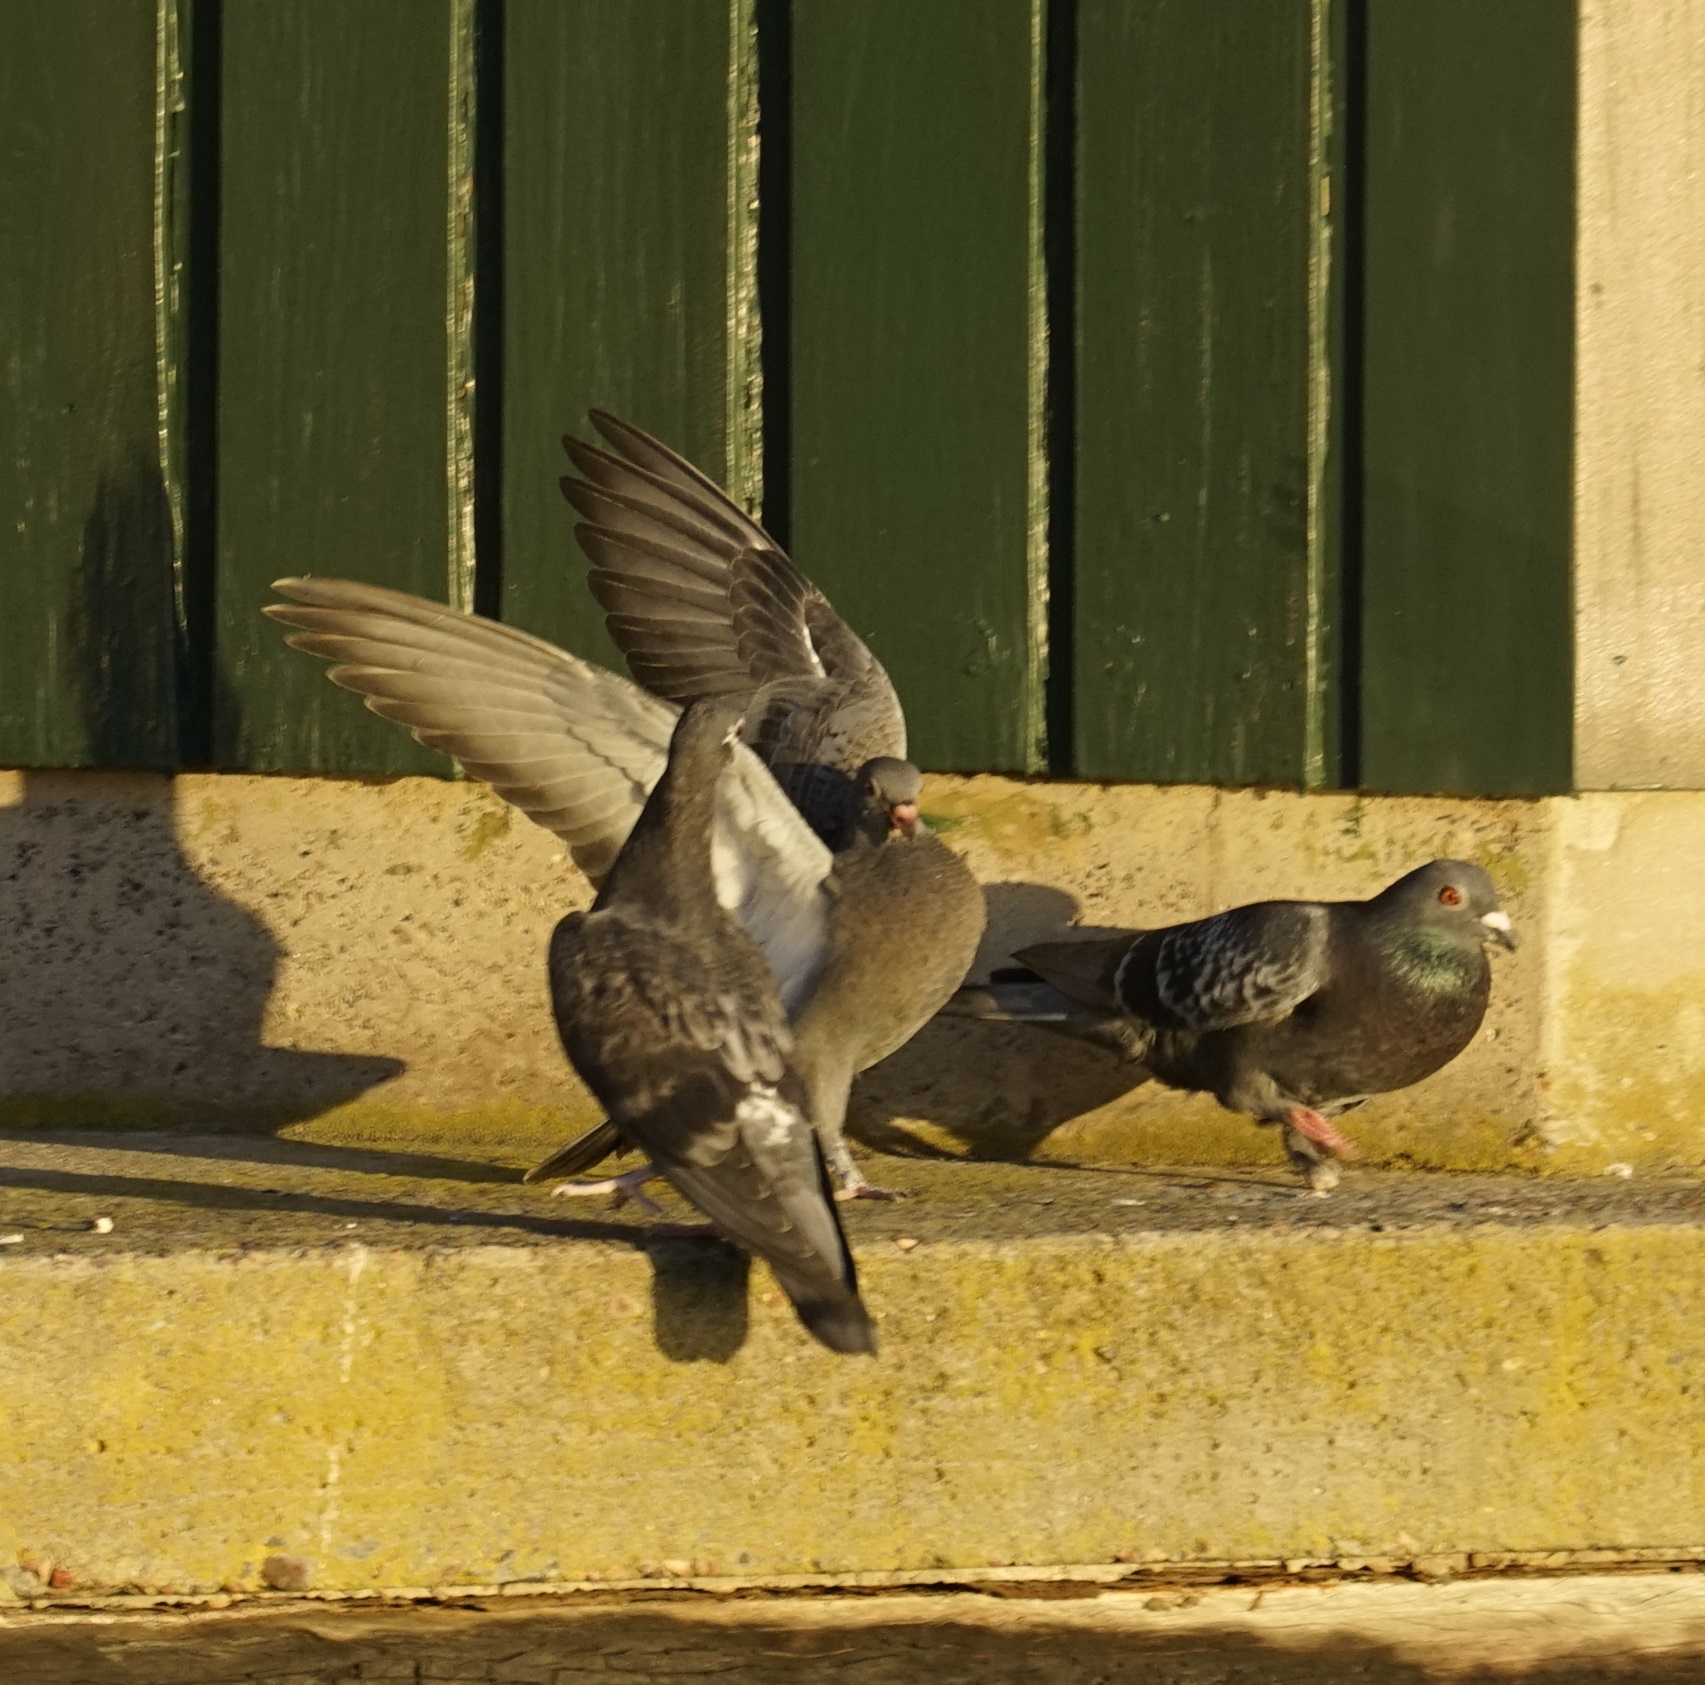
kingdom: Animalia
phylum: Chordata
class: Aves
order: Columbiformes
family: Columbidae
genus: Columba
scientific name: Columba livia
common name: Rock pigeon
